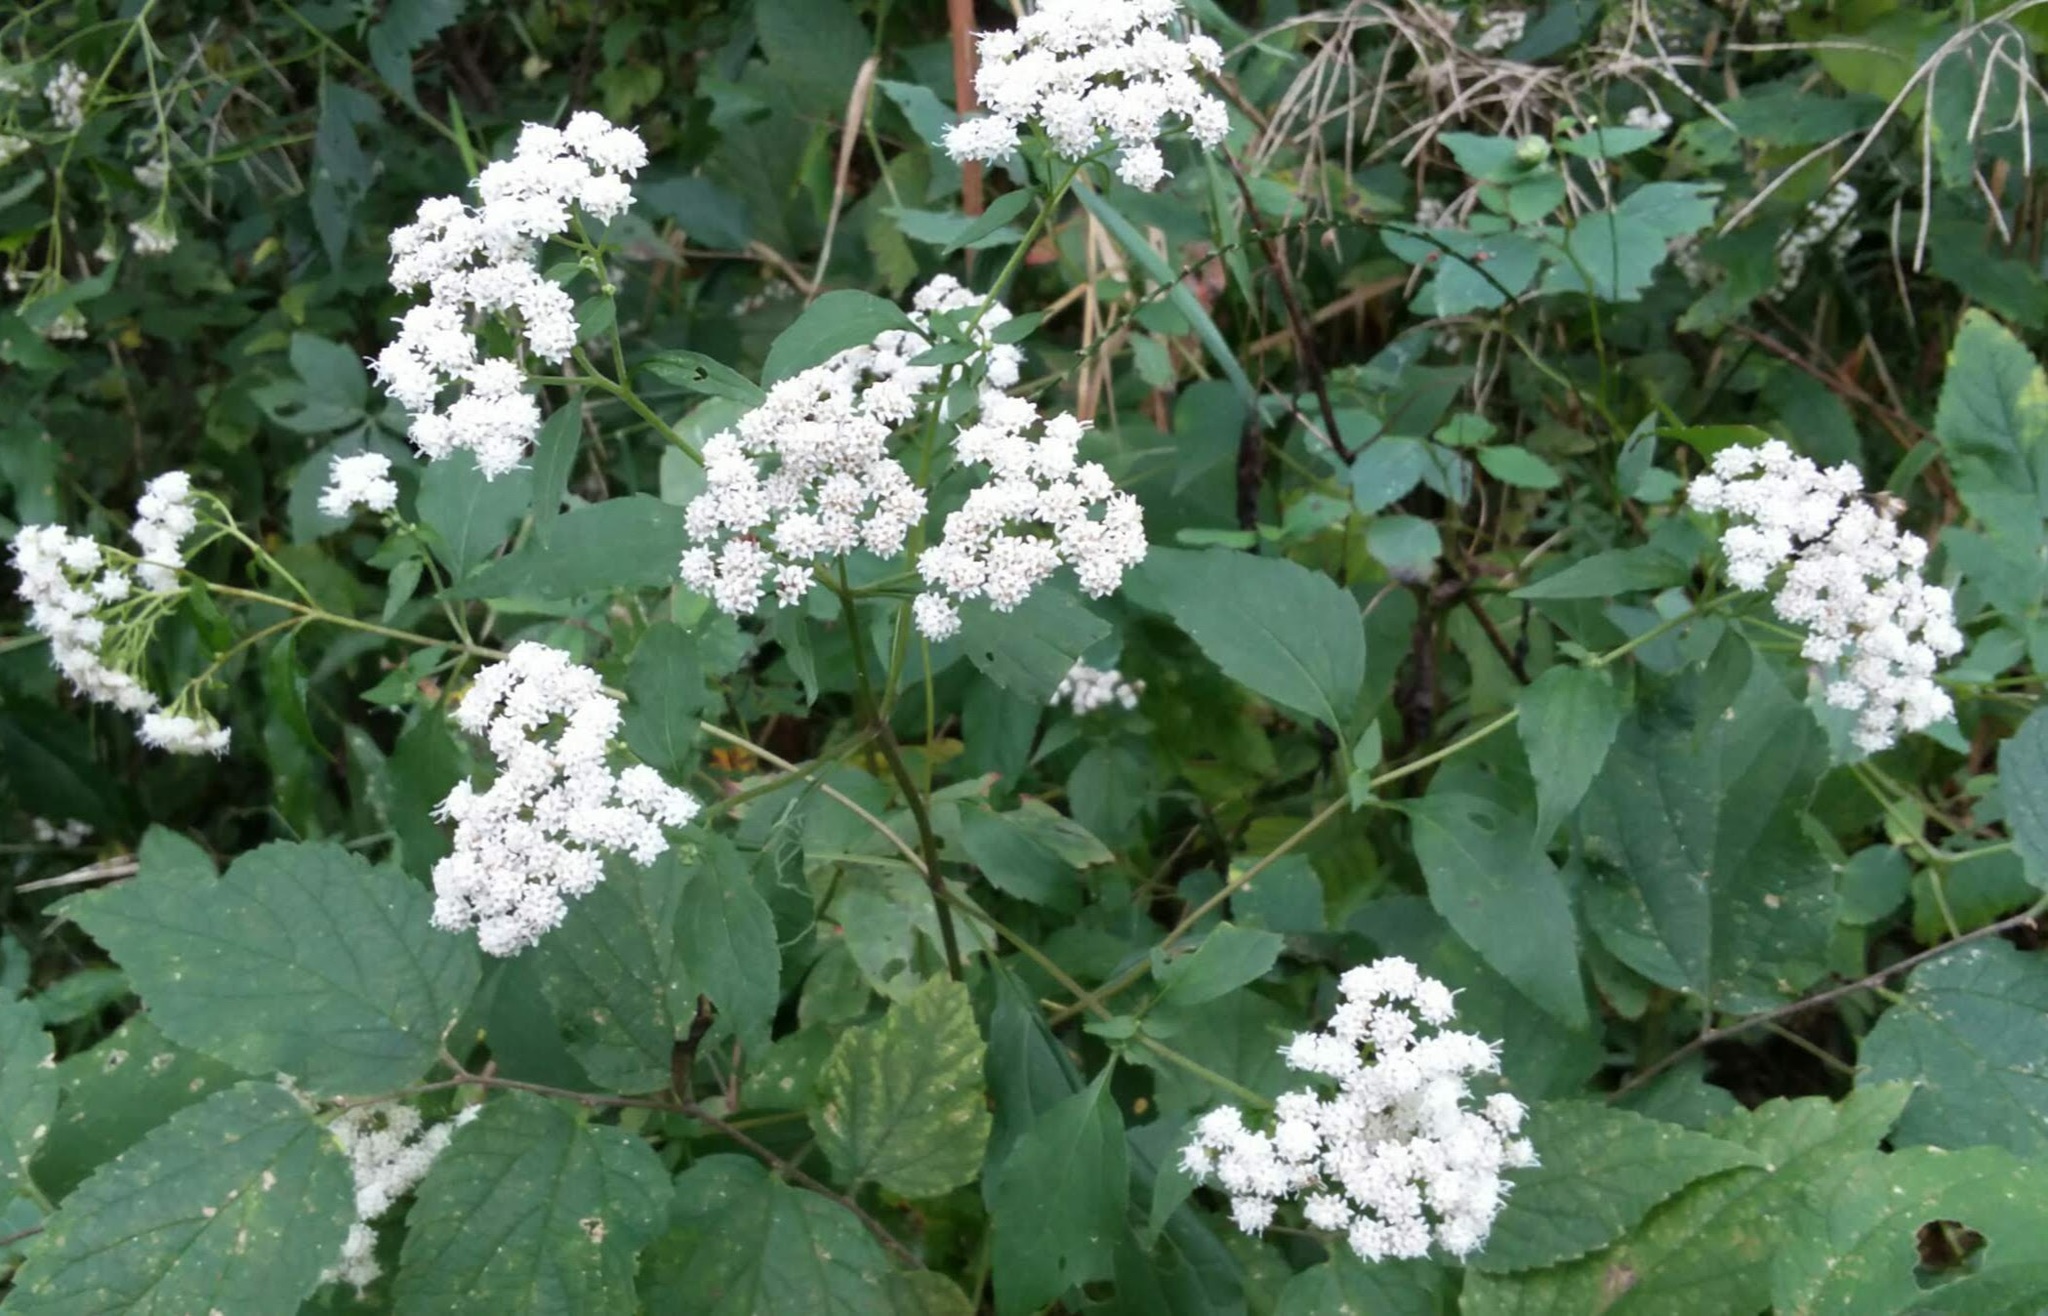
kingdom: Plantae
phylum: Tracheophyta
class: Magnoliopsida
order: Asterales
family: Asteraceae
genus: Ageratina
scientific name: Ageratina altissima
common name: White snakeroot
